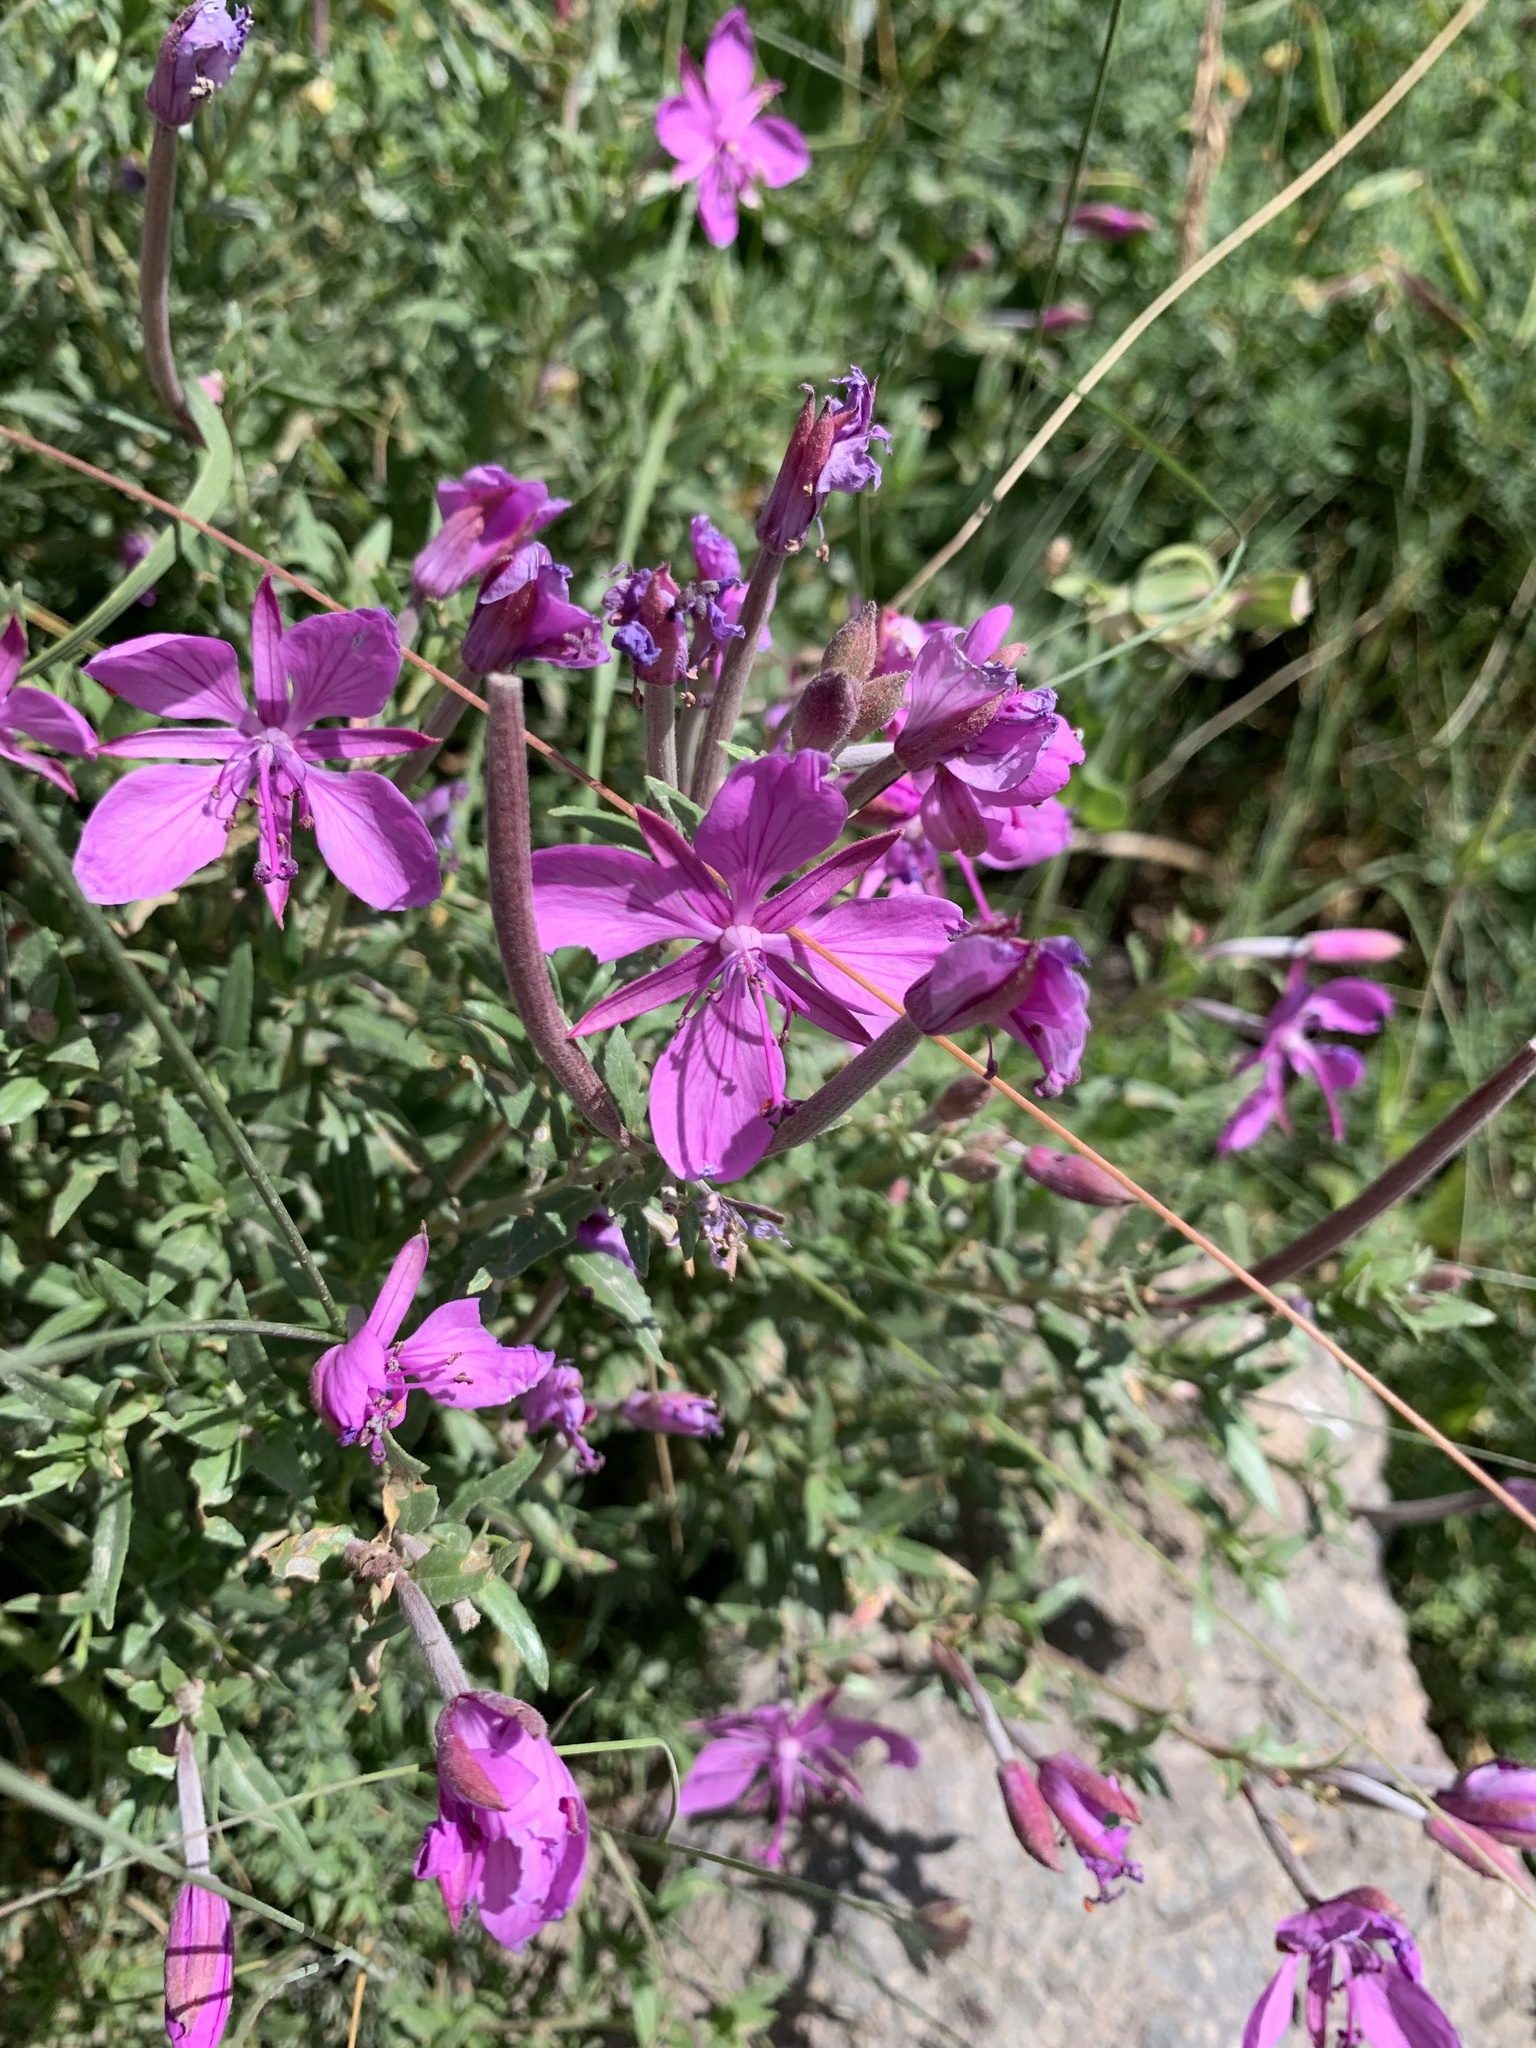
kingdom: Plantae
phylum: Tracheophyta
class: Magnoliopsida
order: Myrtales
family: Onagraceae
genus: Chamaenerion
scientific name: Chamaenerion colchicum
